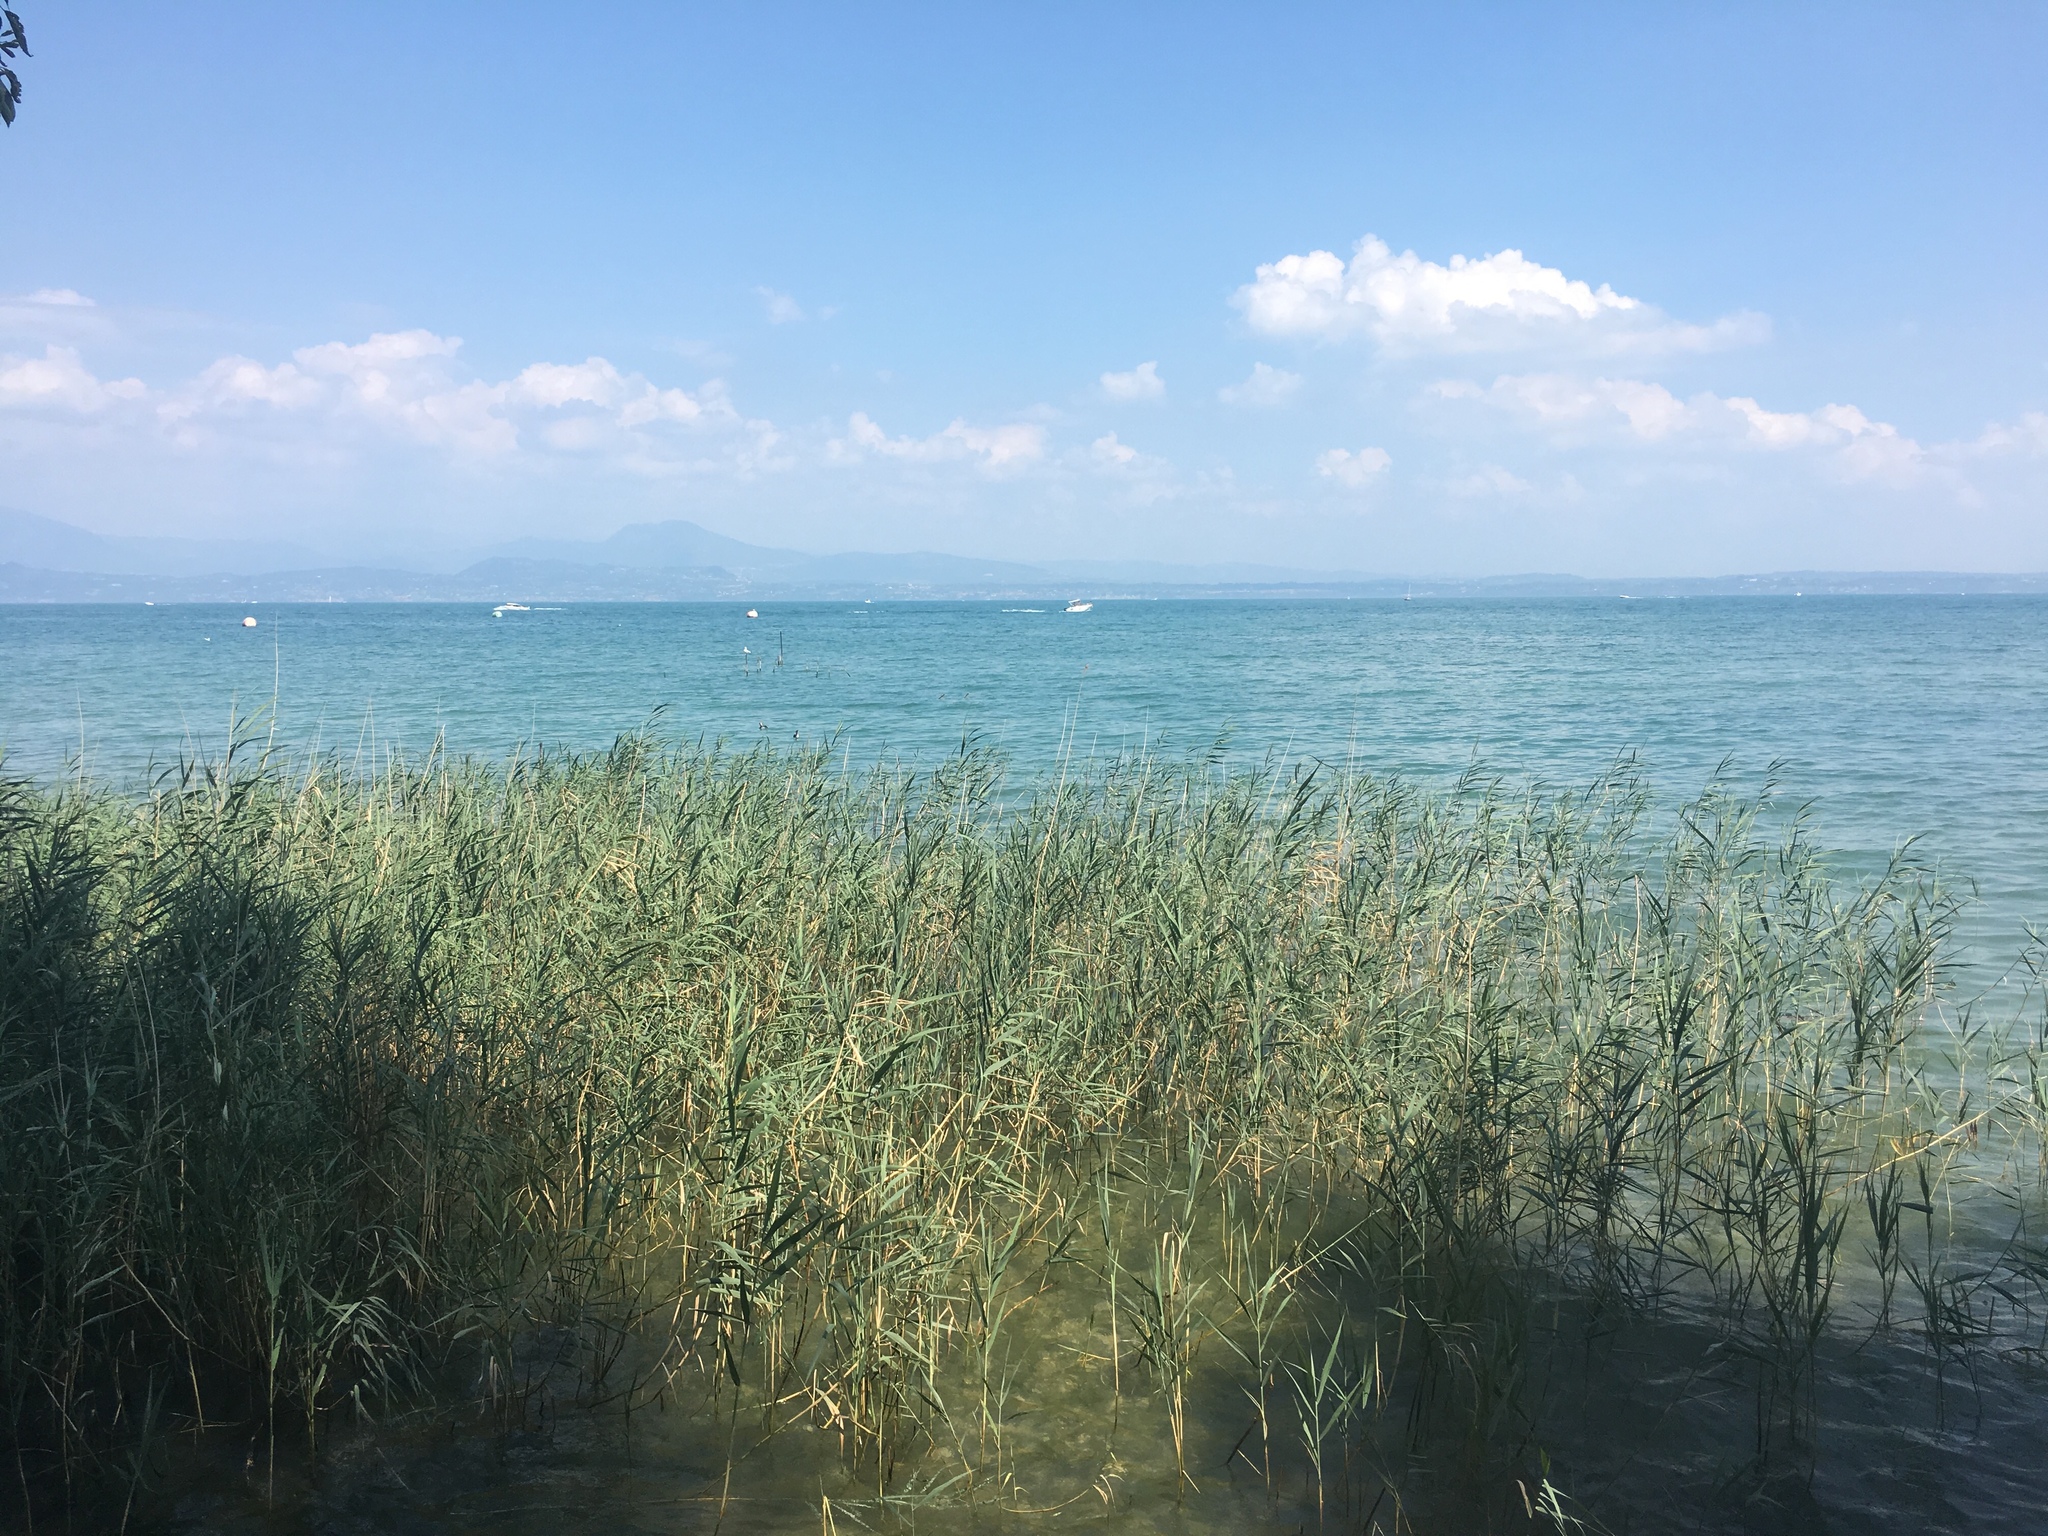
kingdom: Plantae
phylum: Tracheophyta
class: Liliopsida
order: Poales
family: Poaceae
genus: Phragmites
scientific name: Phragmites australis
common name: Common reed
